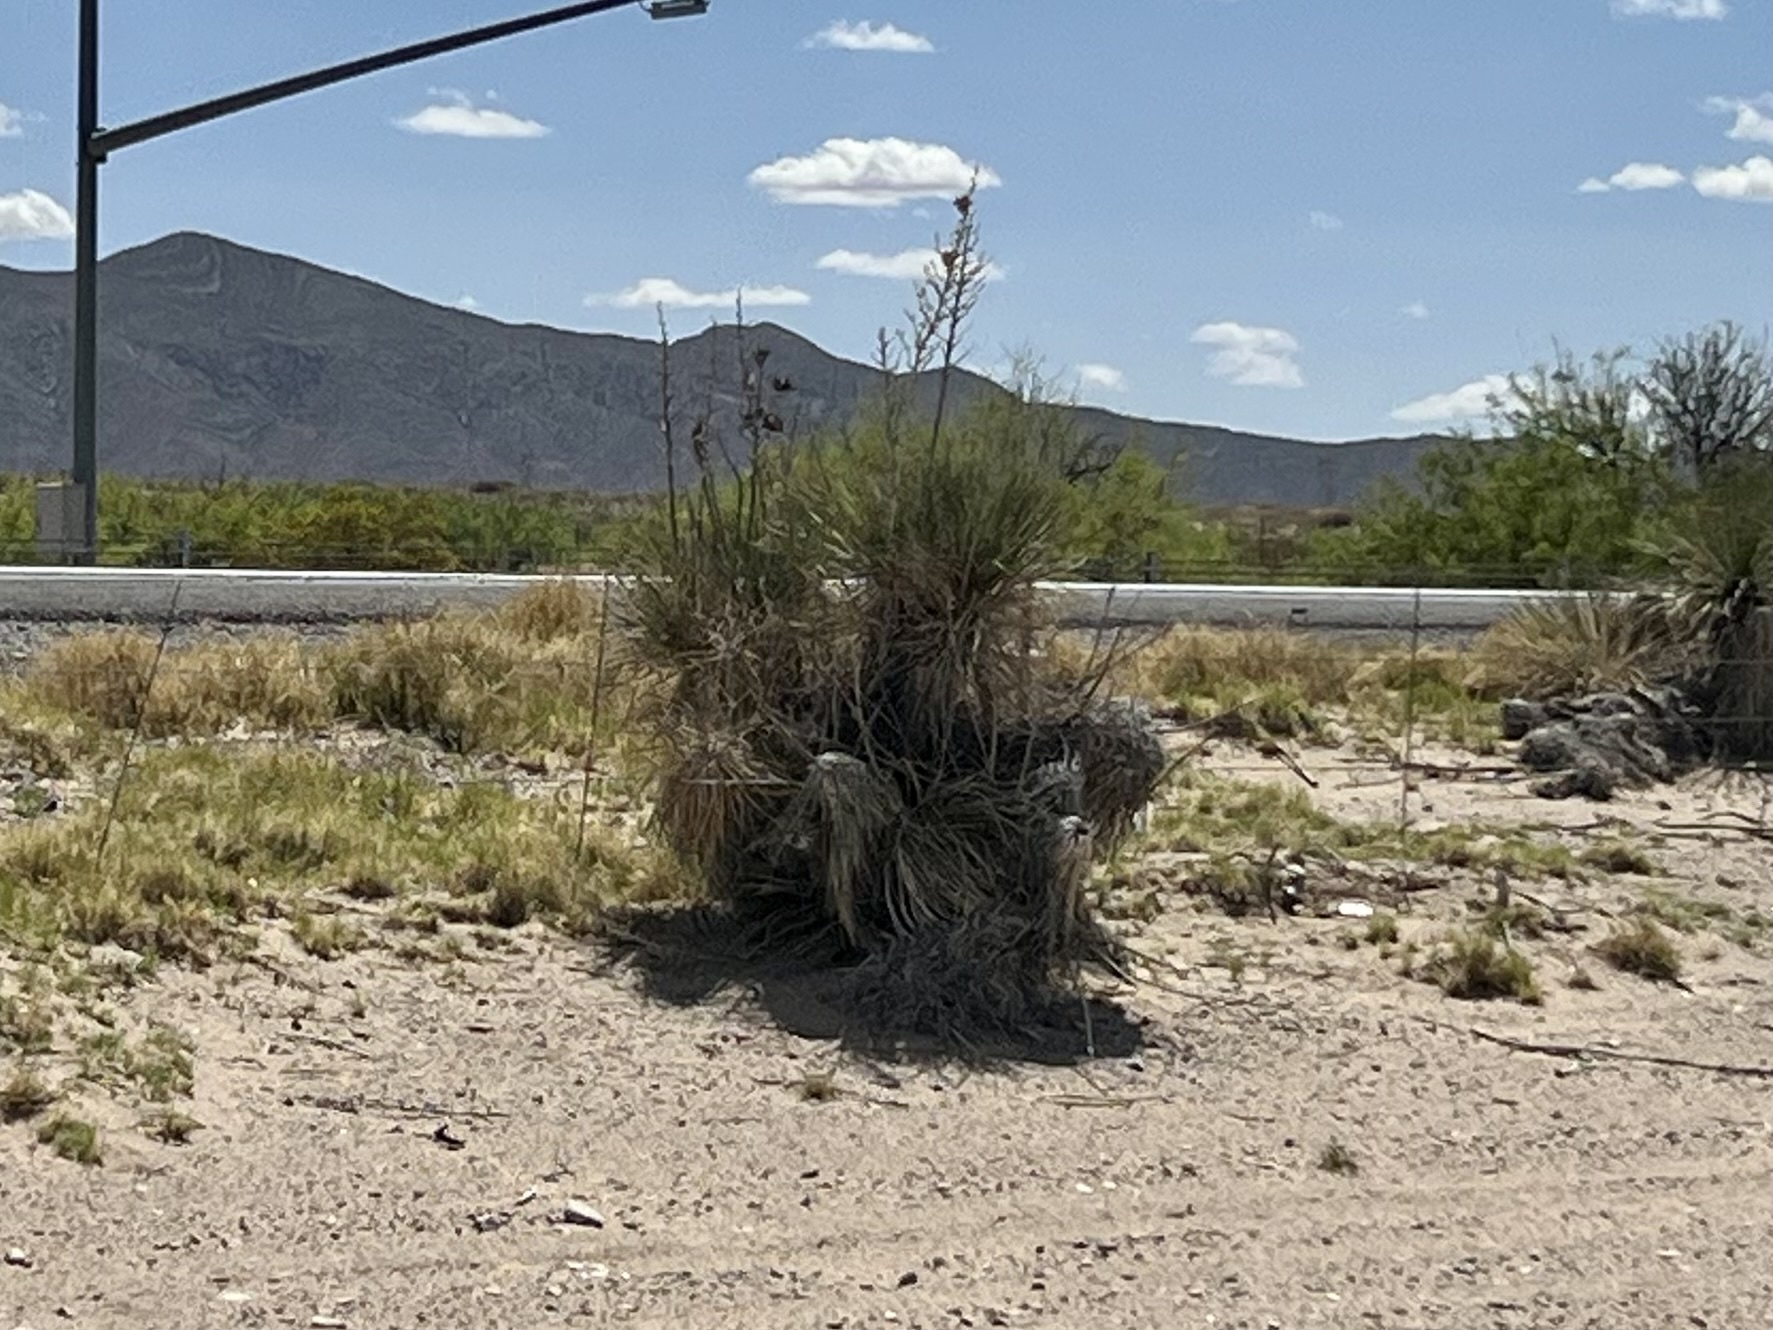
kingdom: Plantae
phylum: Tracheophyta
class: Liliopsida
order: Asparagales
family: Asparagaceae
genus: Yucca
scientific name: Yucca elata
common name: Palmella
